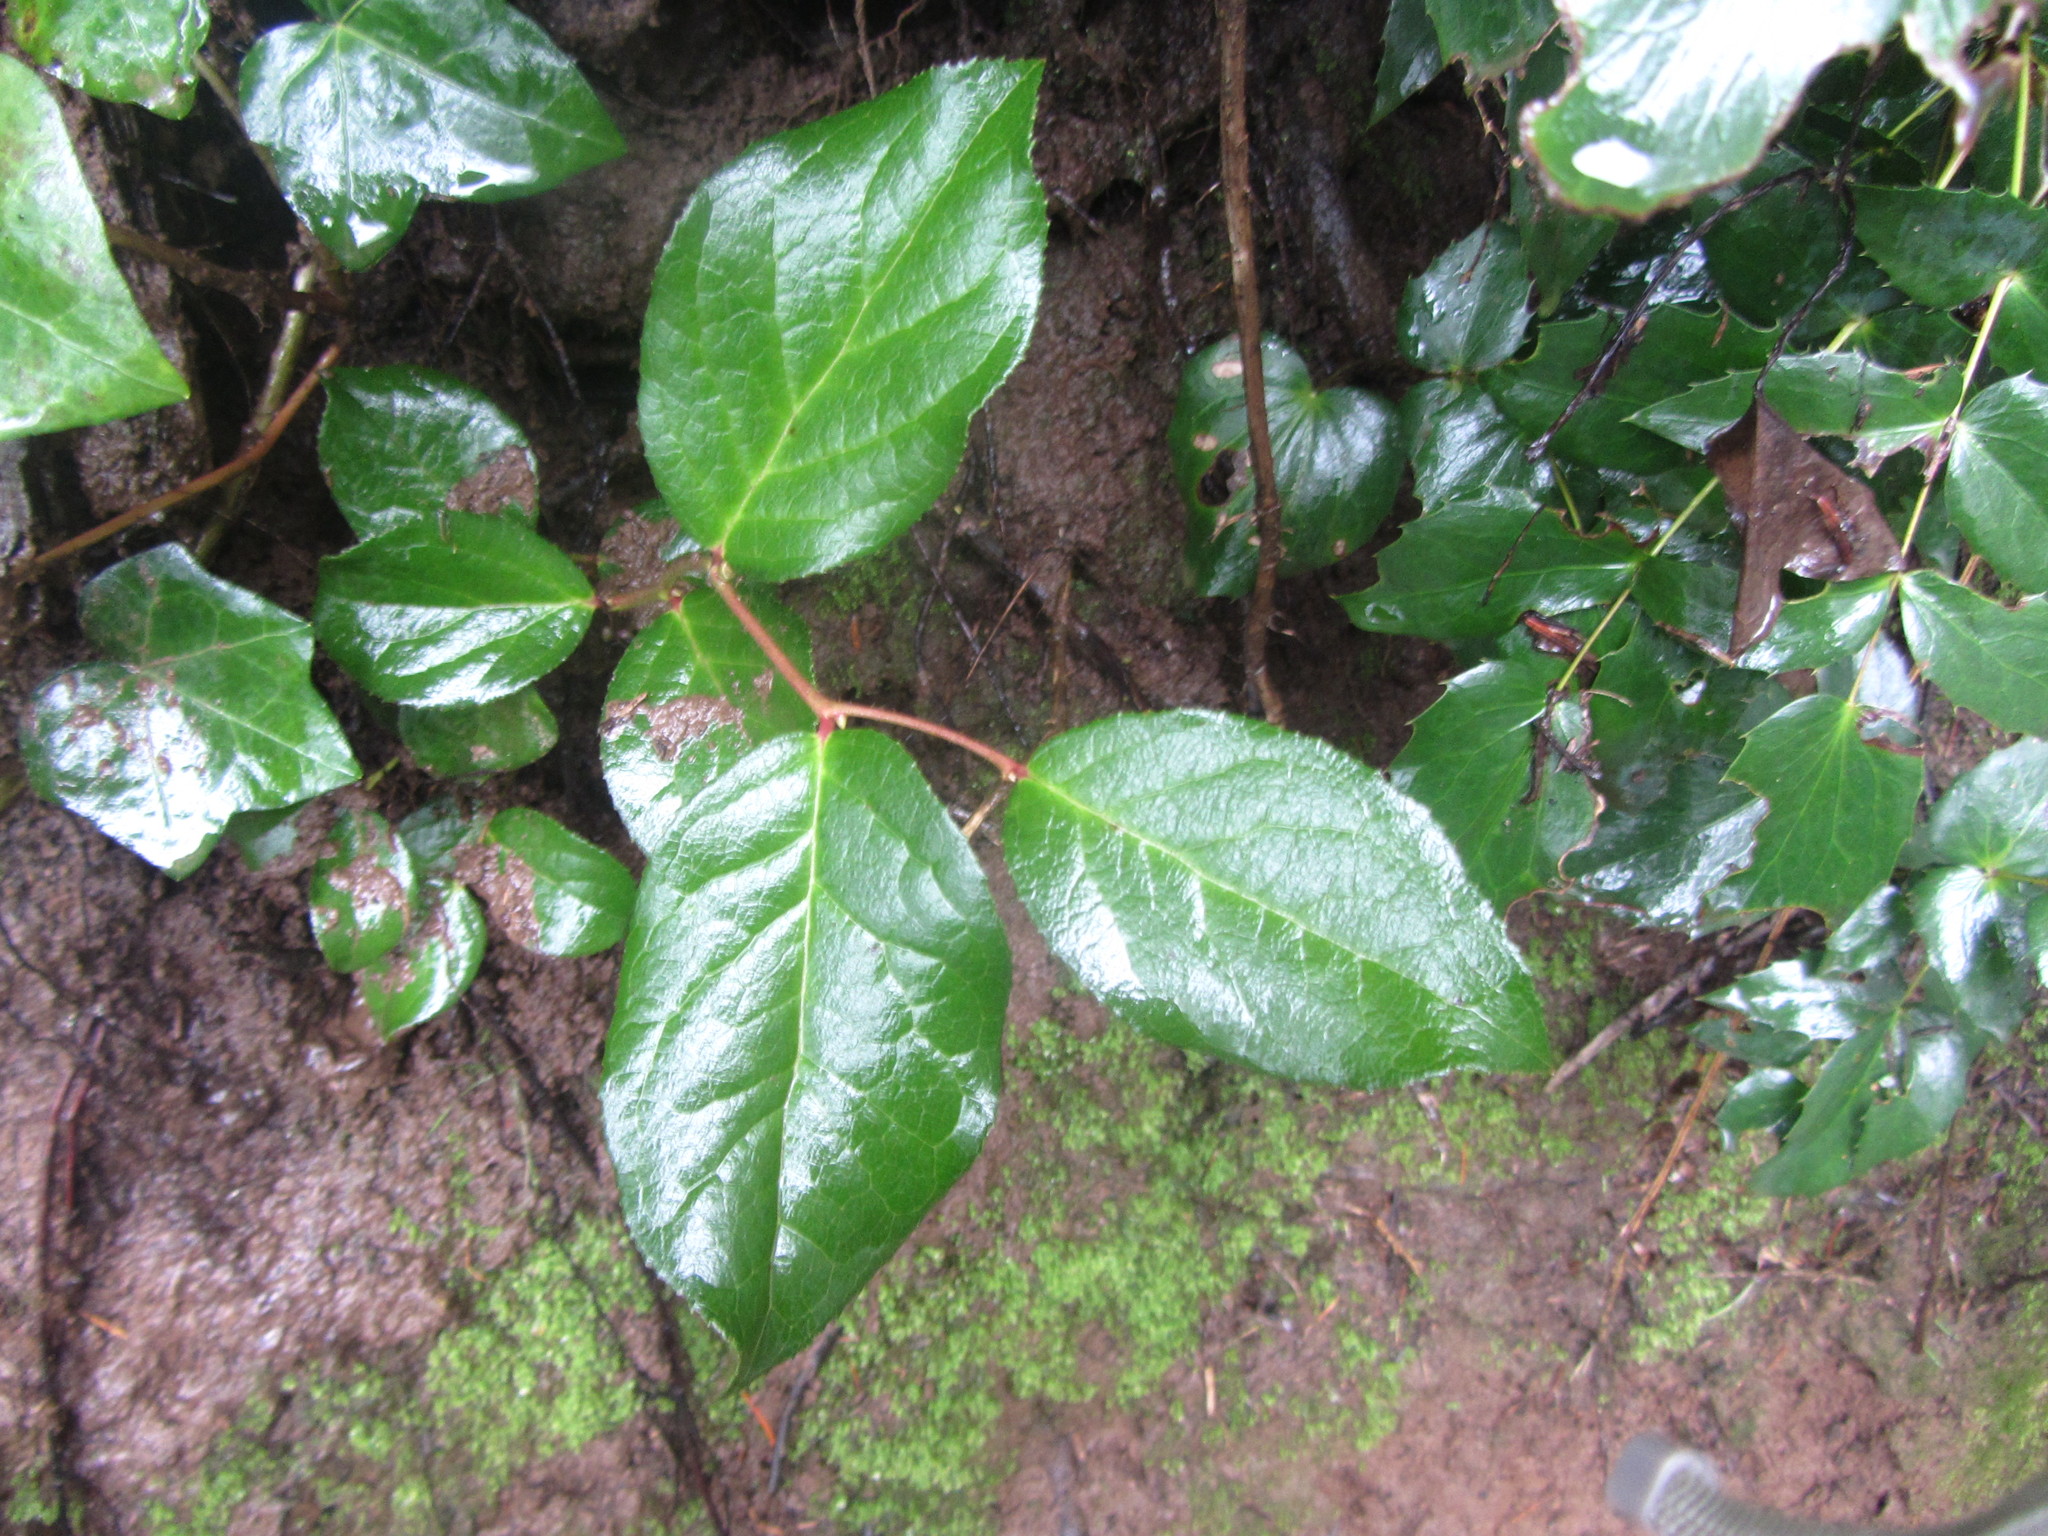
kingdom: Plantae
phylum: Tracheophyta
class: Magnoliopsida
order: Ericales
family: Ericaceae
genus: Gaultheria
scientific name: Gaultheria shallon
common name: Shallon
